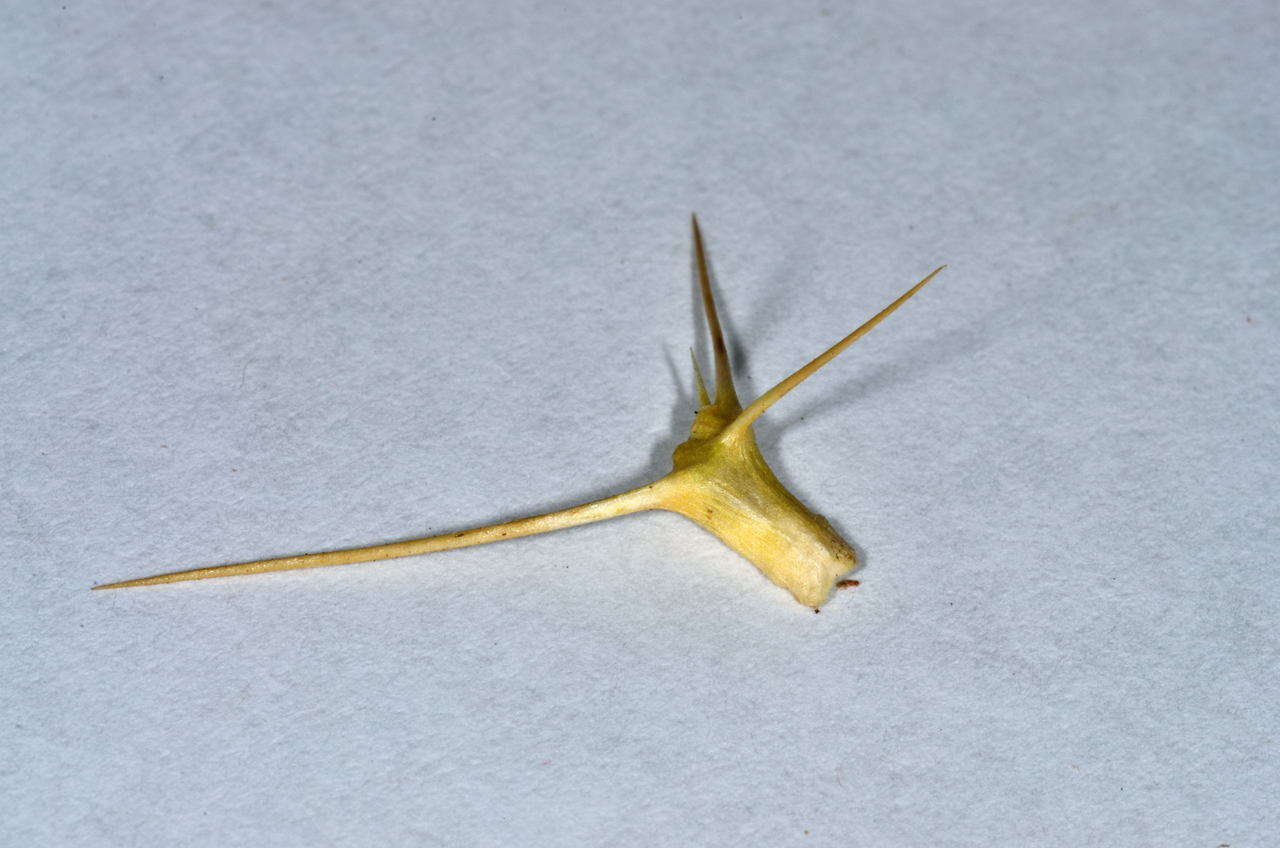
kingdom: Plantae
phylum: Tracheophyta
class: Magnoliopsida
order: Caryophyllales
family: Amaranthaceae
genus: Sclerolaena
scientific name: Sclerolaena divaricata
